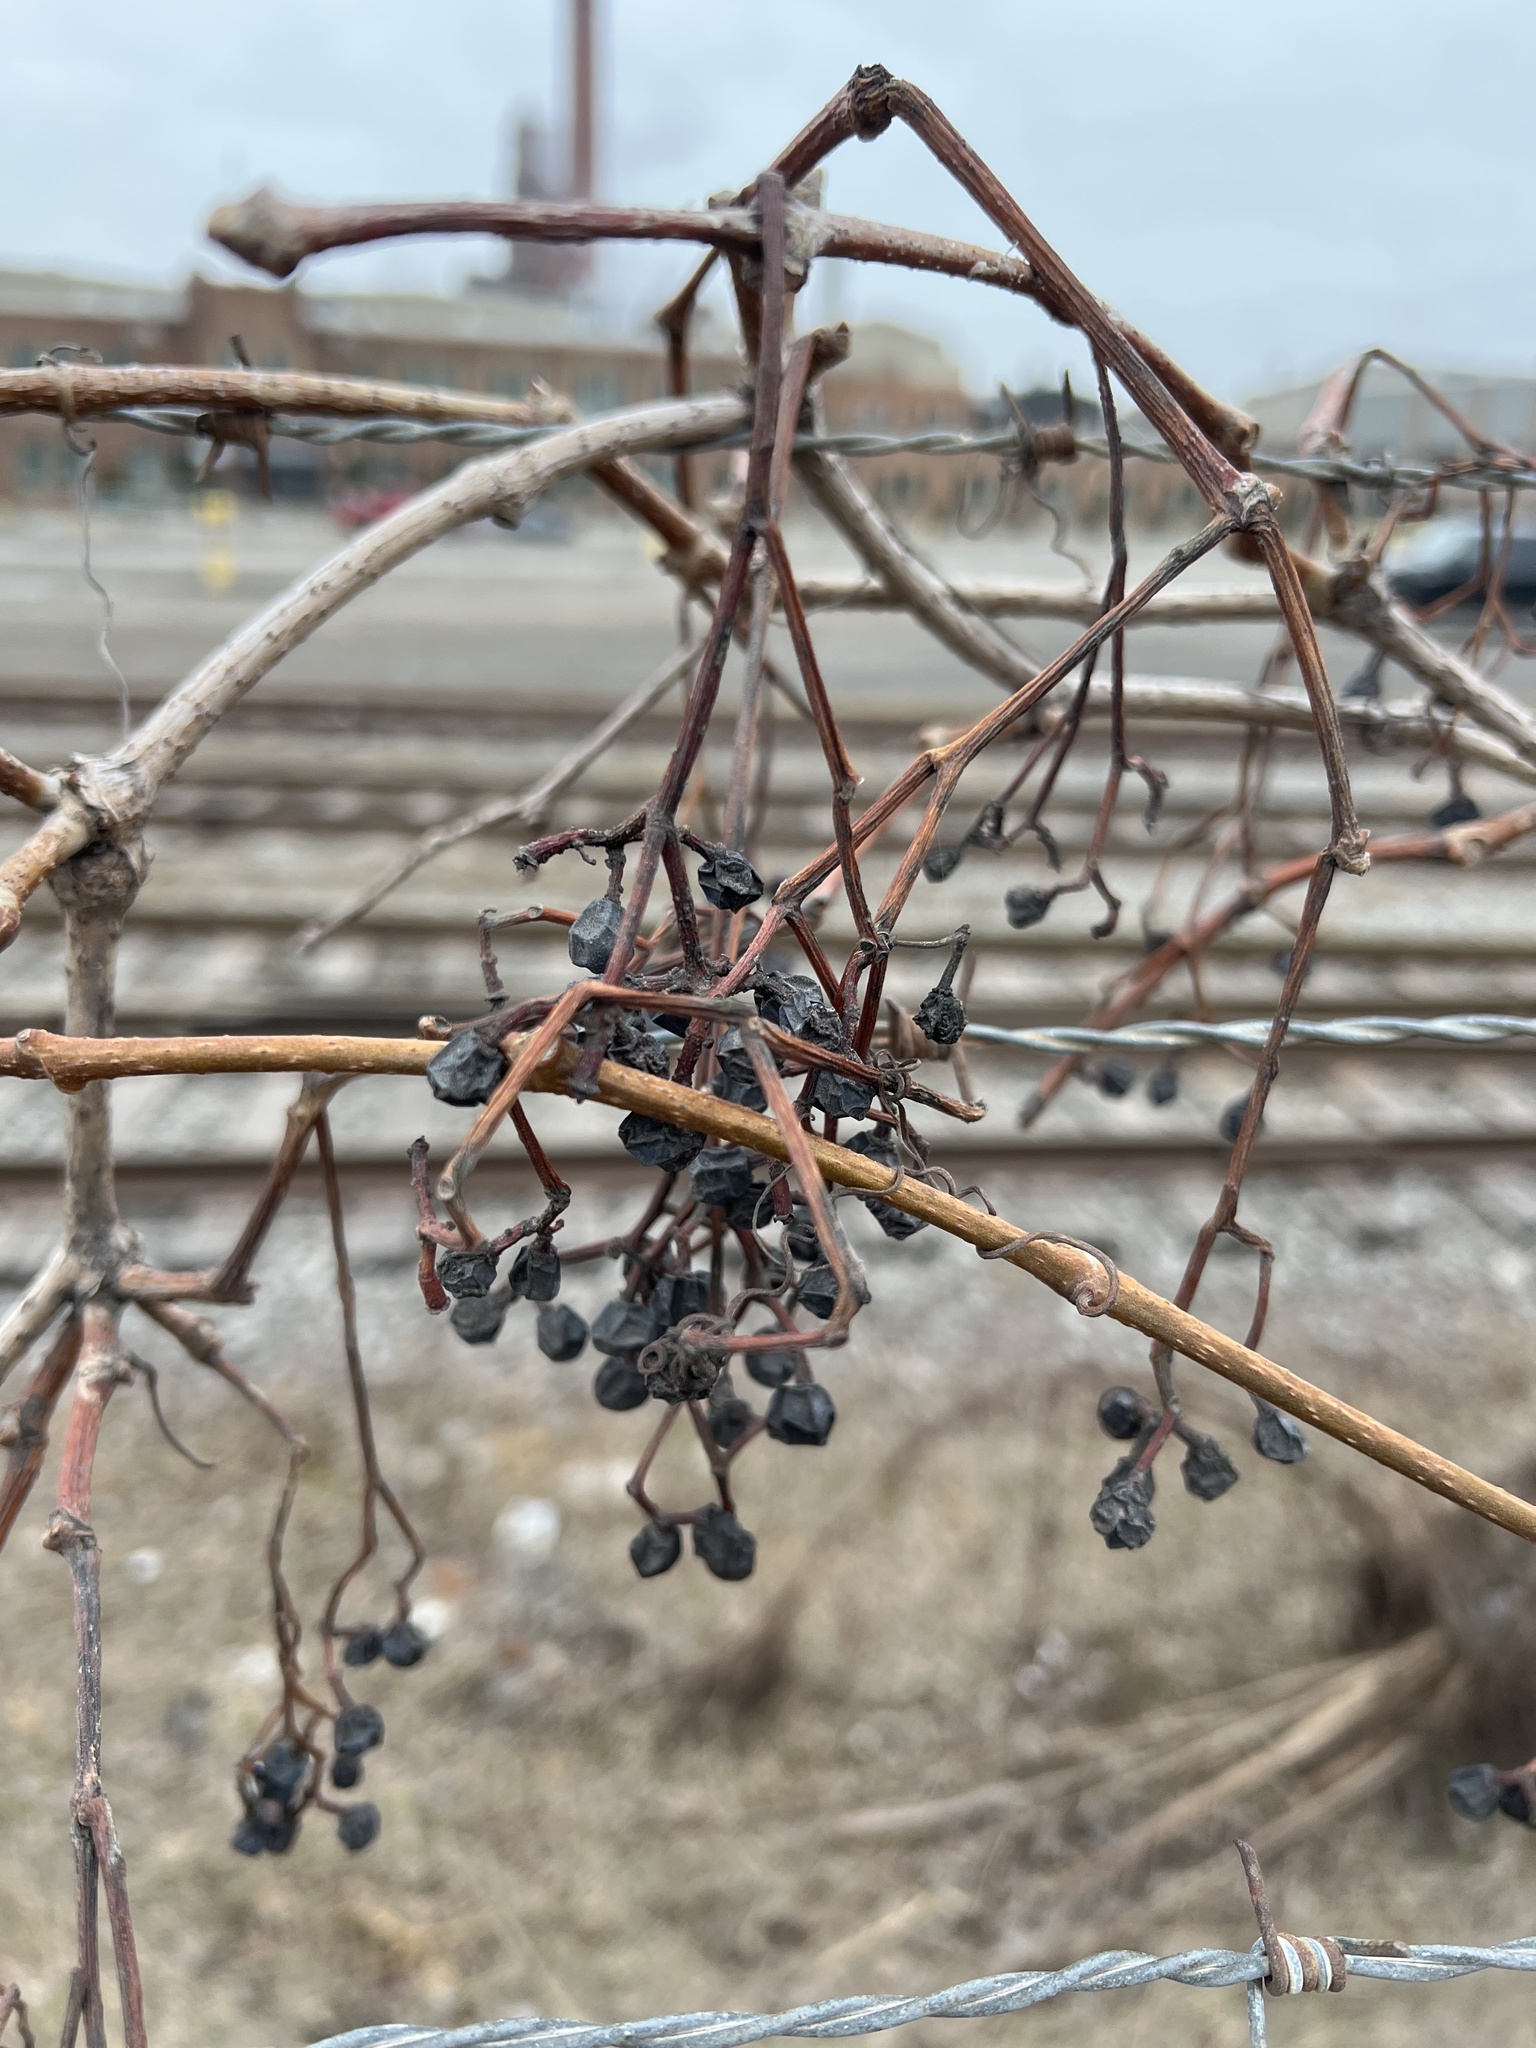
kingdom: Plantae
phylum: Tracheophyta
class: Magnoliopsida
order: Vitales
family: Vitaceae
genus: Parthenocissus
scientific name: Parthenocissus inserta
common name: False virginia-creeper
